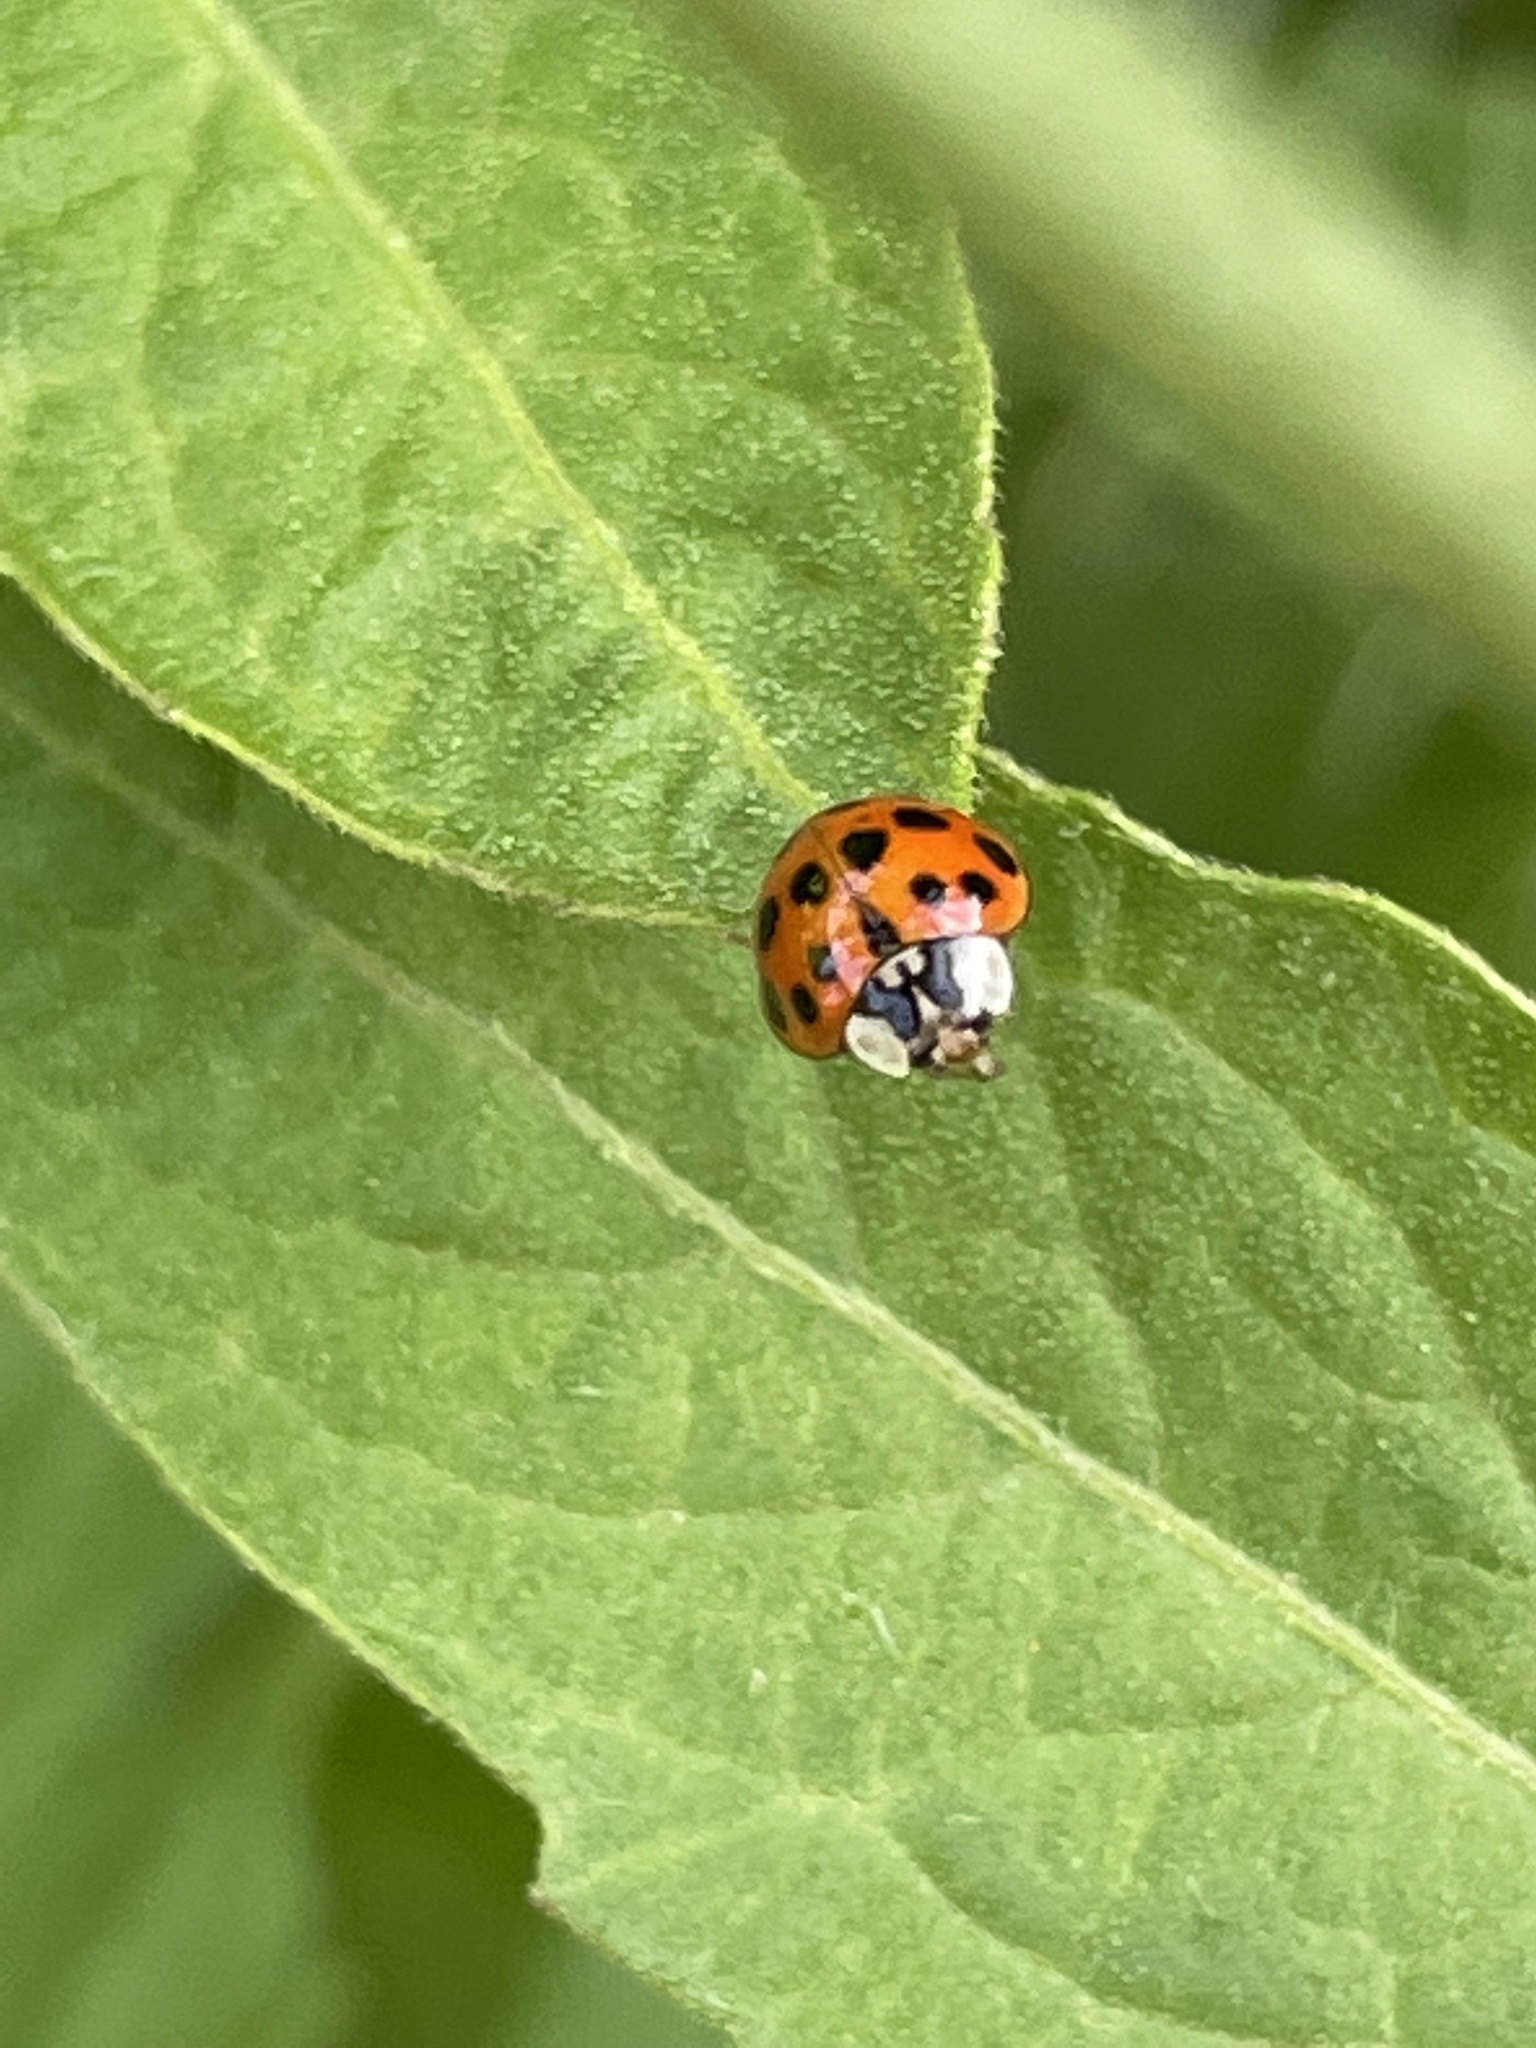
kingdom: Animalia
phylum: Arthropoda
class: Insecta
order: Coleoptera
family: Coccinellidae
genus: Harmonia
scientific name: Harmonia axyridis
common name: Harlequin ladybird
